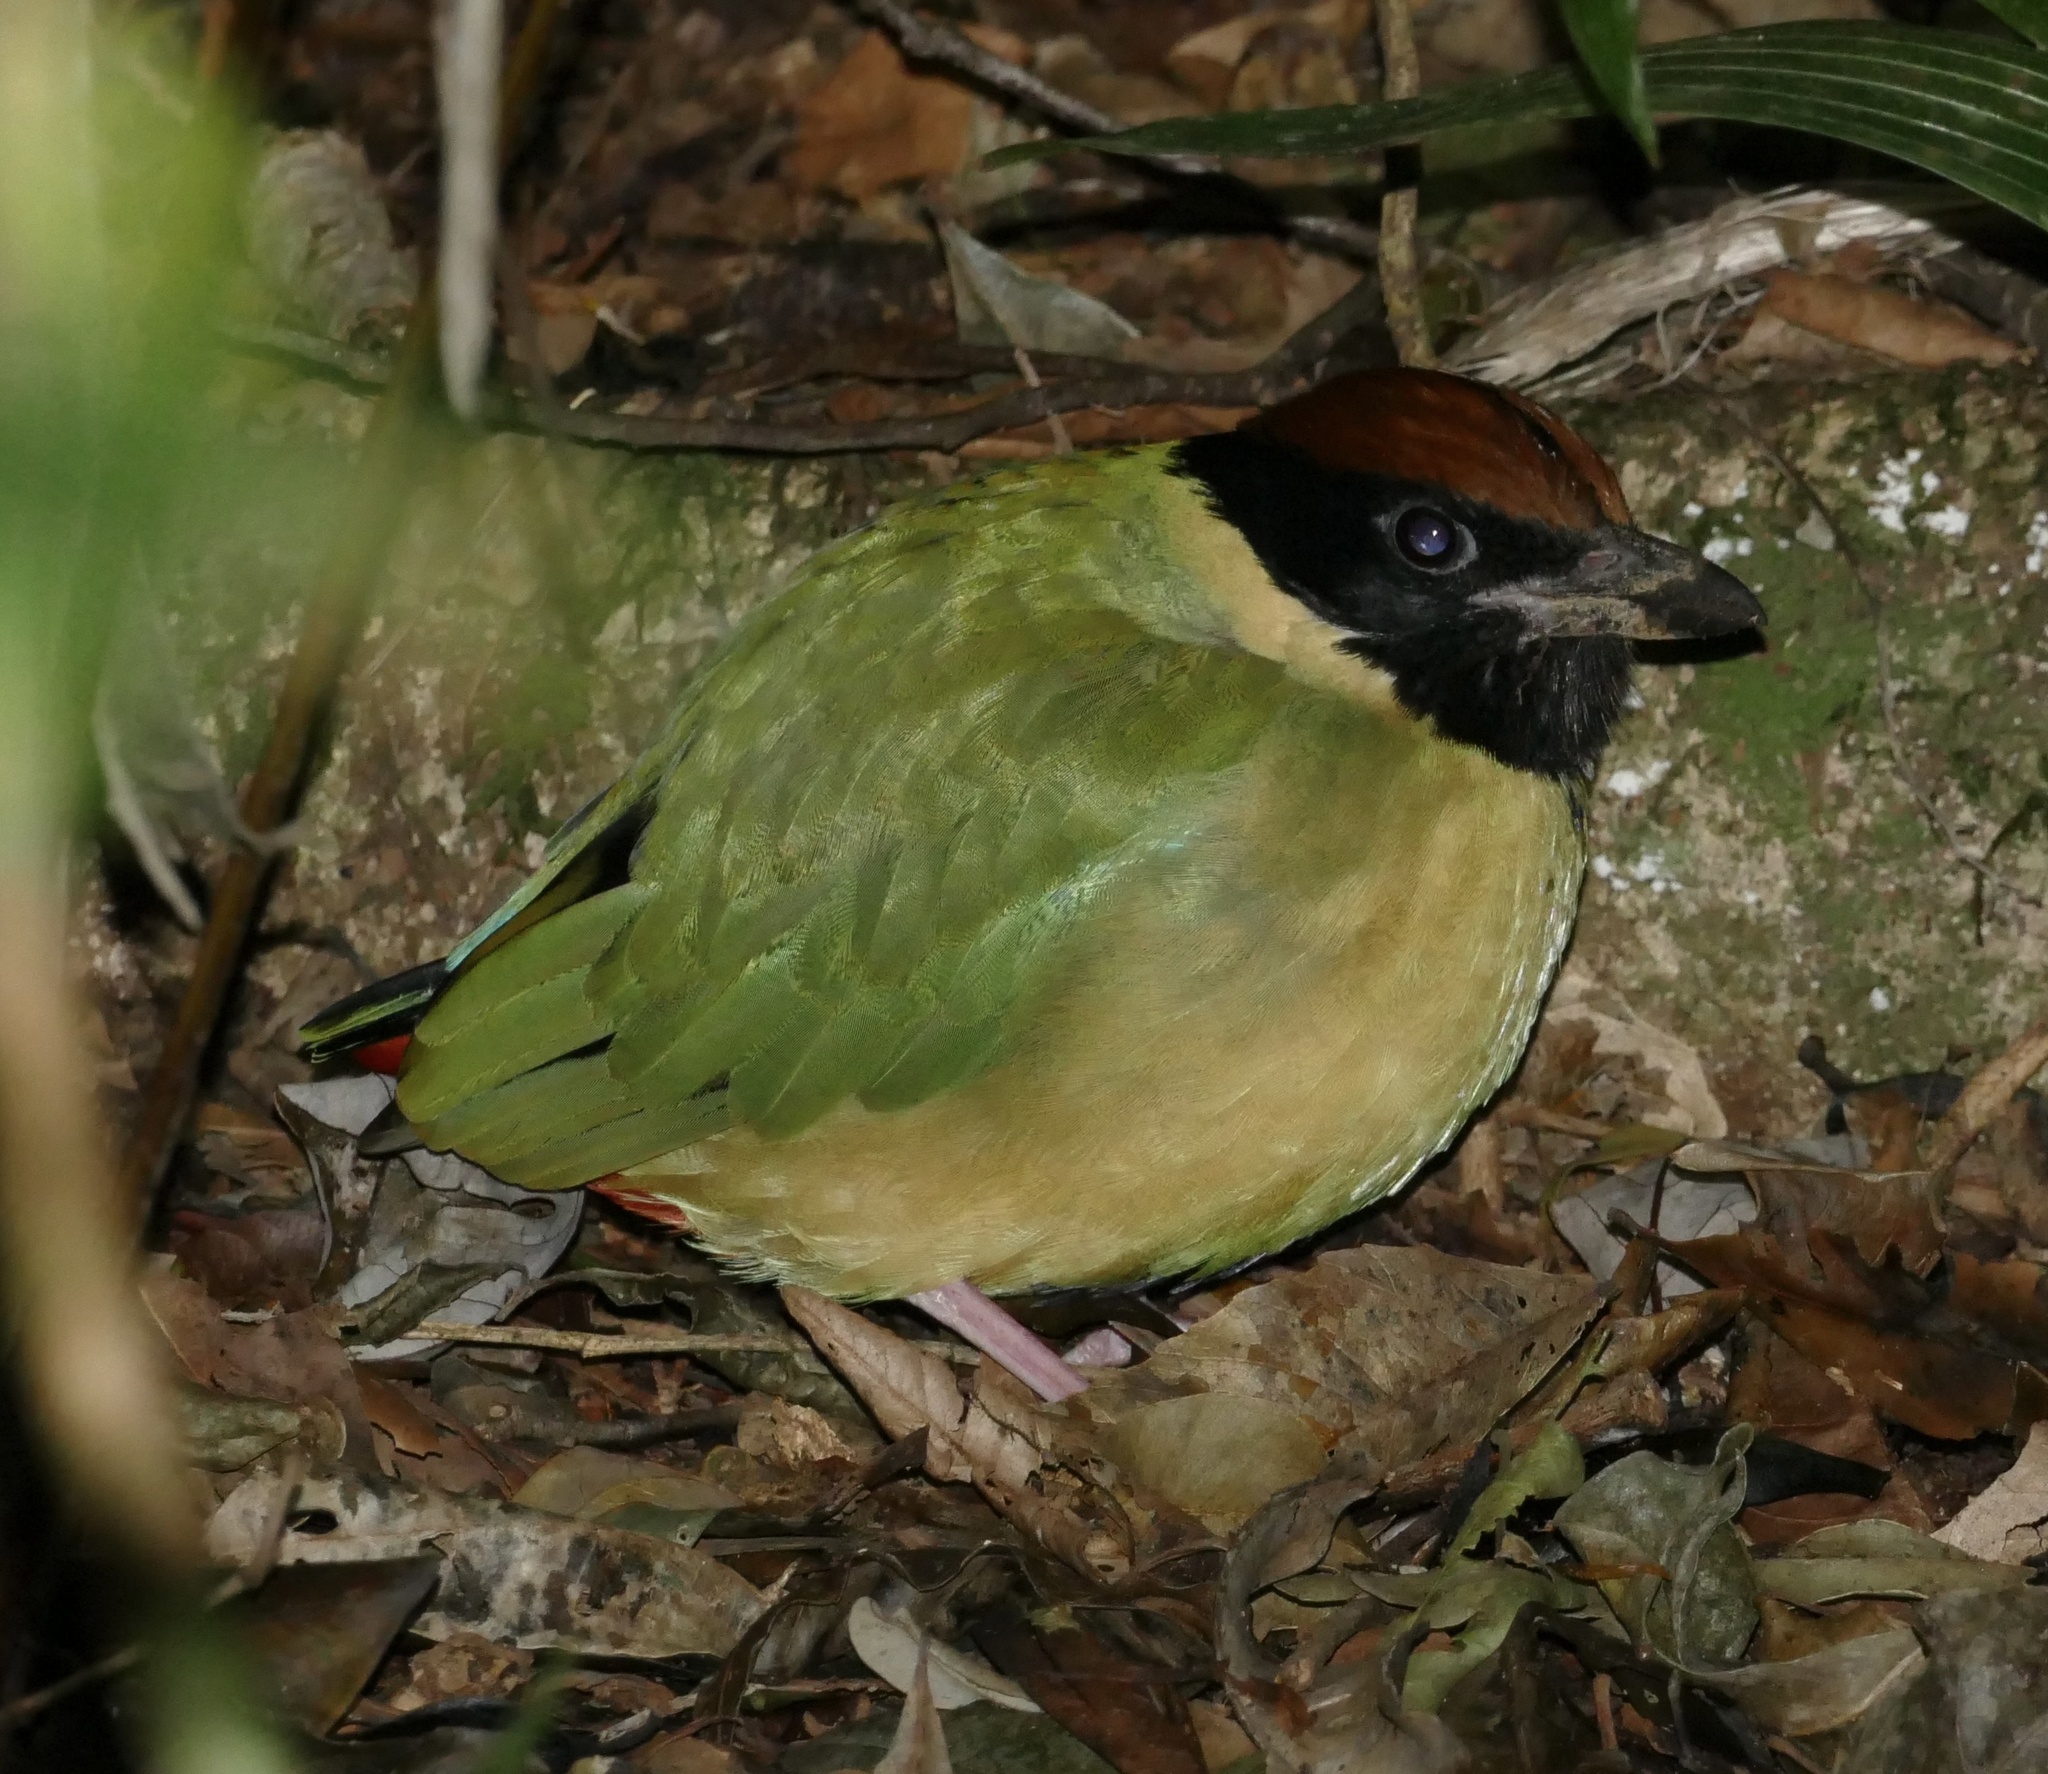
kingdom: Animalia
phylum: Chordata
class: Aves
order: Passeriformes
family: Pittidae
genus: Pitta
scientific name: Pitta versicolor
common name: Noisy pitta
